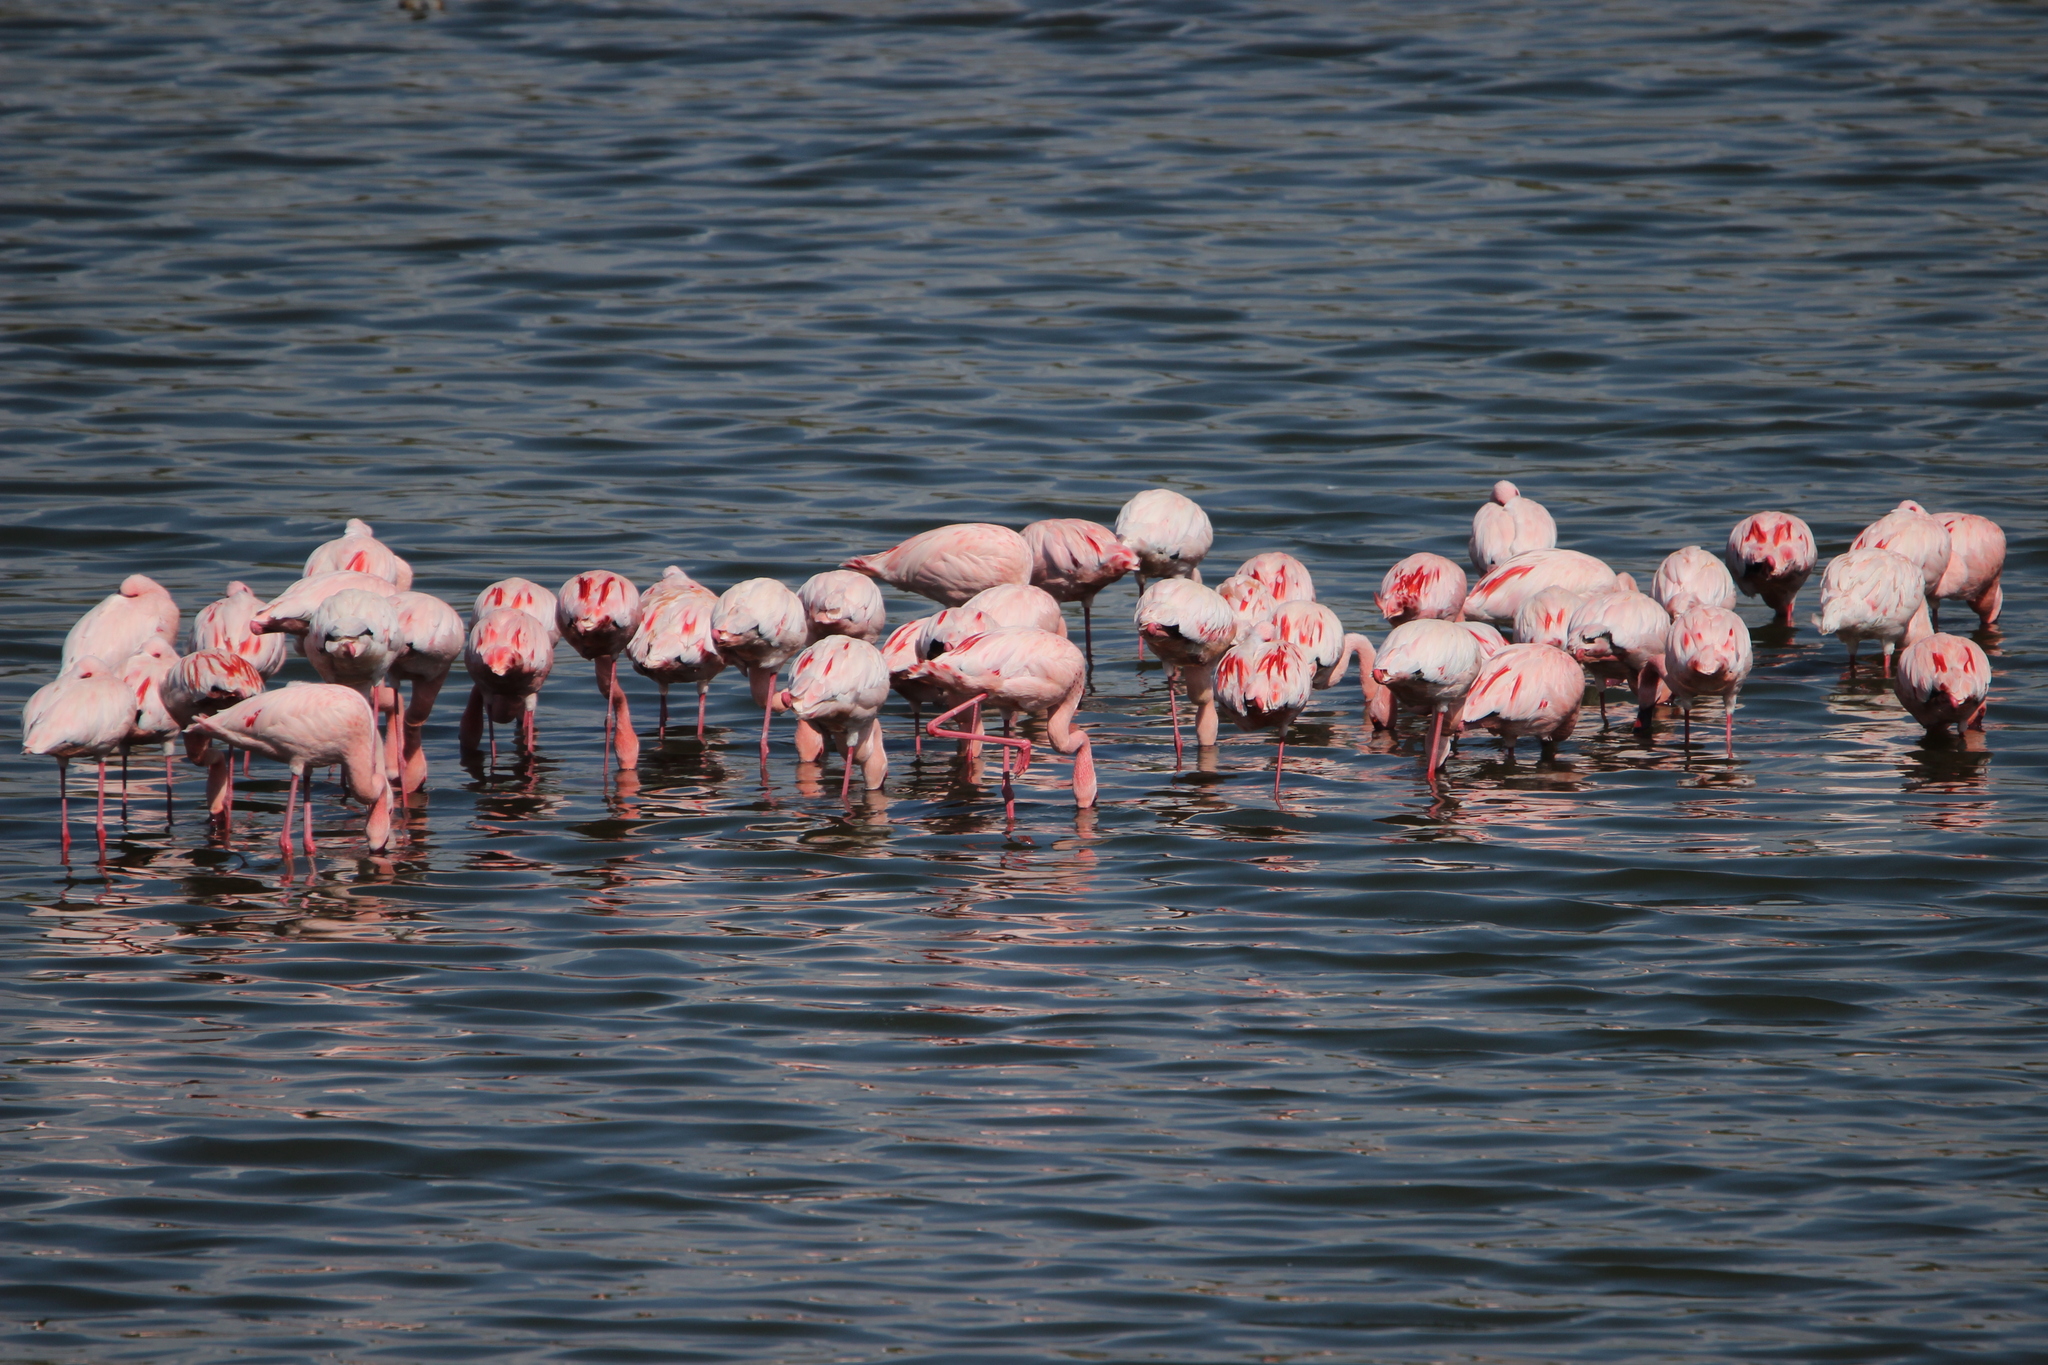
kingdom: Animalia
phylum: Chordata
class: Aves
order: Phoenicopteriformes
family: Phoenicopteridae
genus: Phoeniconaias
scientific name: Phoeniconaias minor
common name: Lesser flamingo
